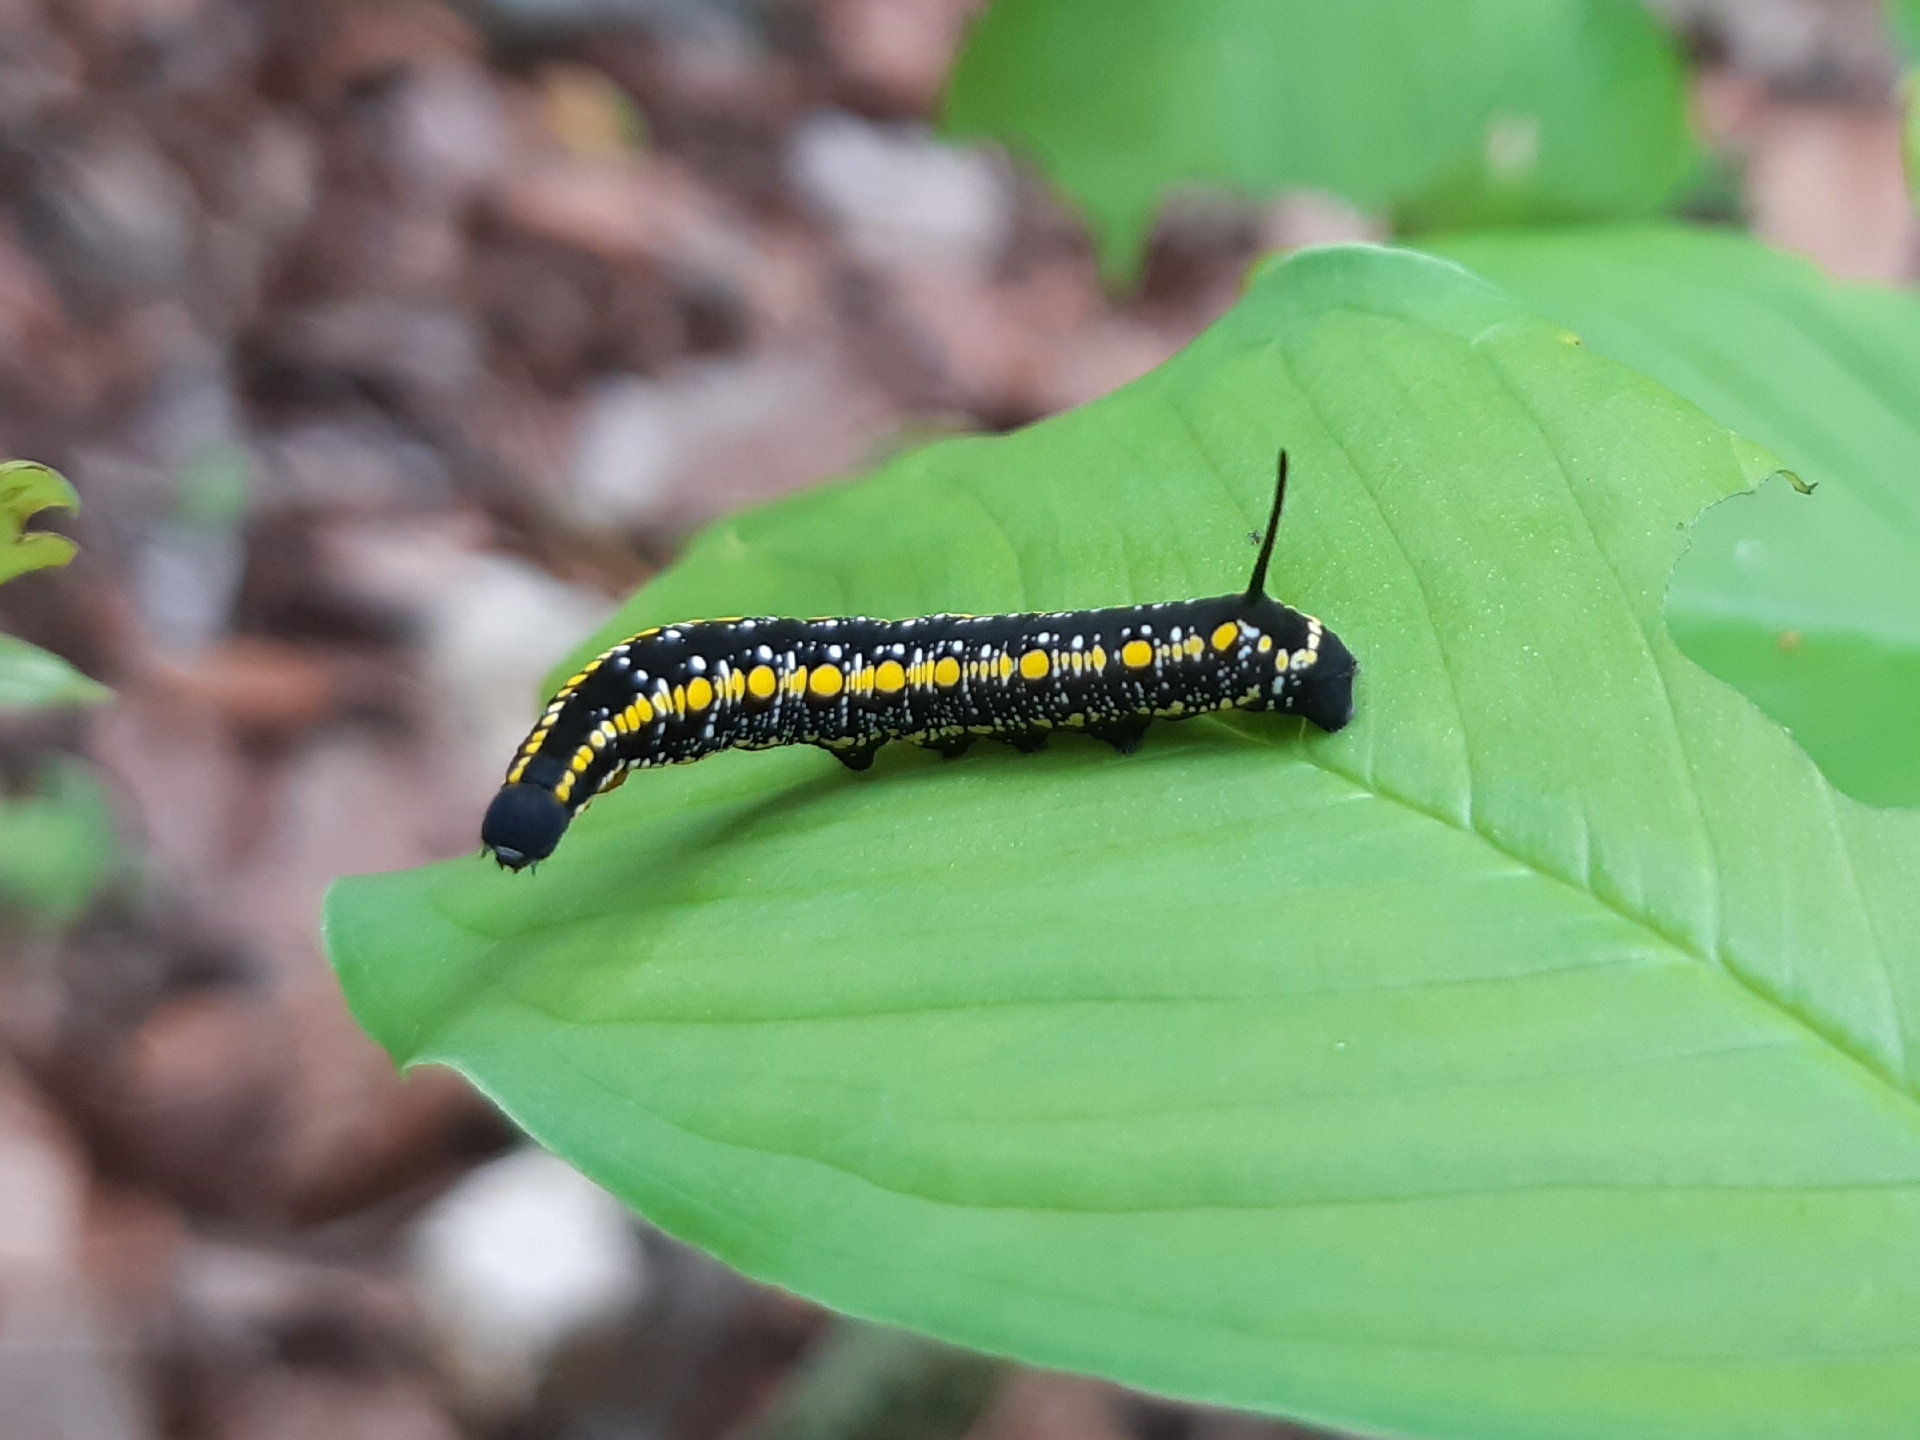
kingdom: Animalia
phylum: Arthropoda
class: Insecta
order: Lepidoptera
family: Sphingidae
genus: Theretra
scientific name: Theretra oldenlandiae
